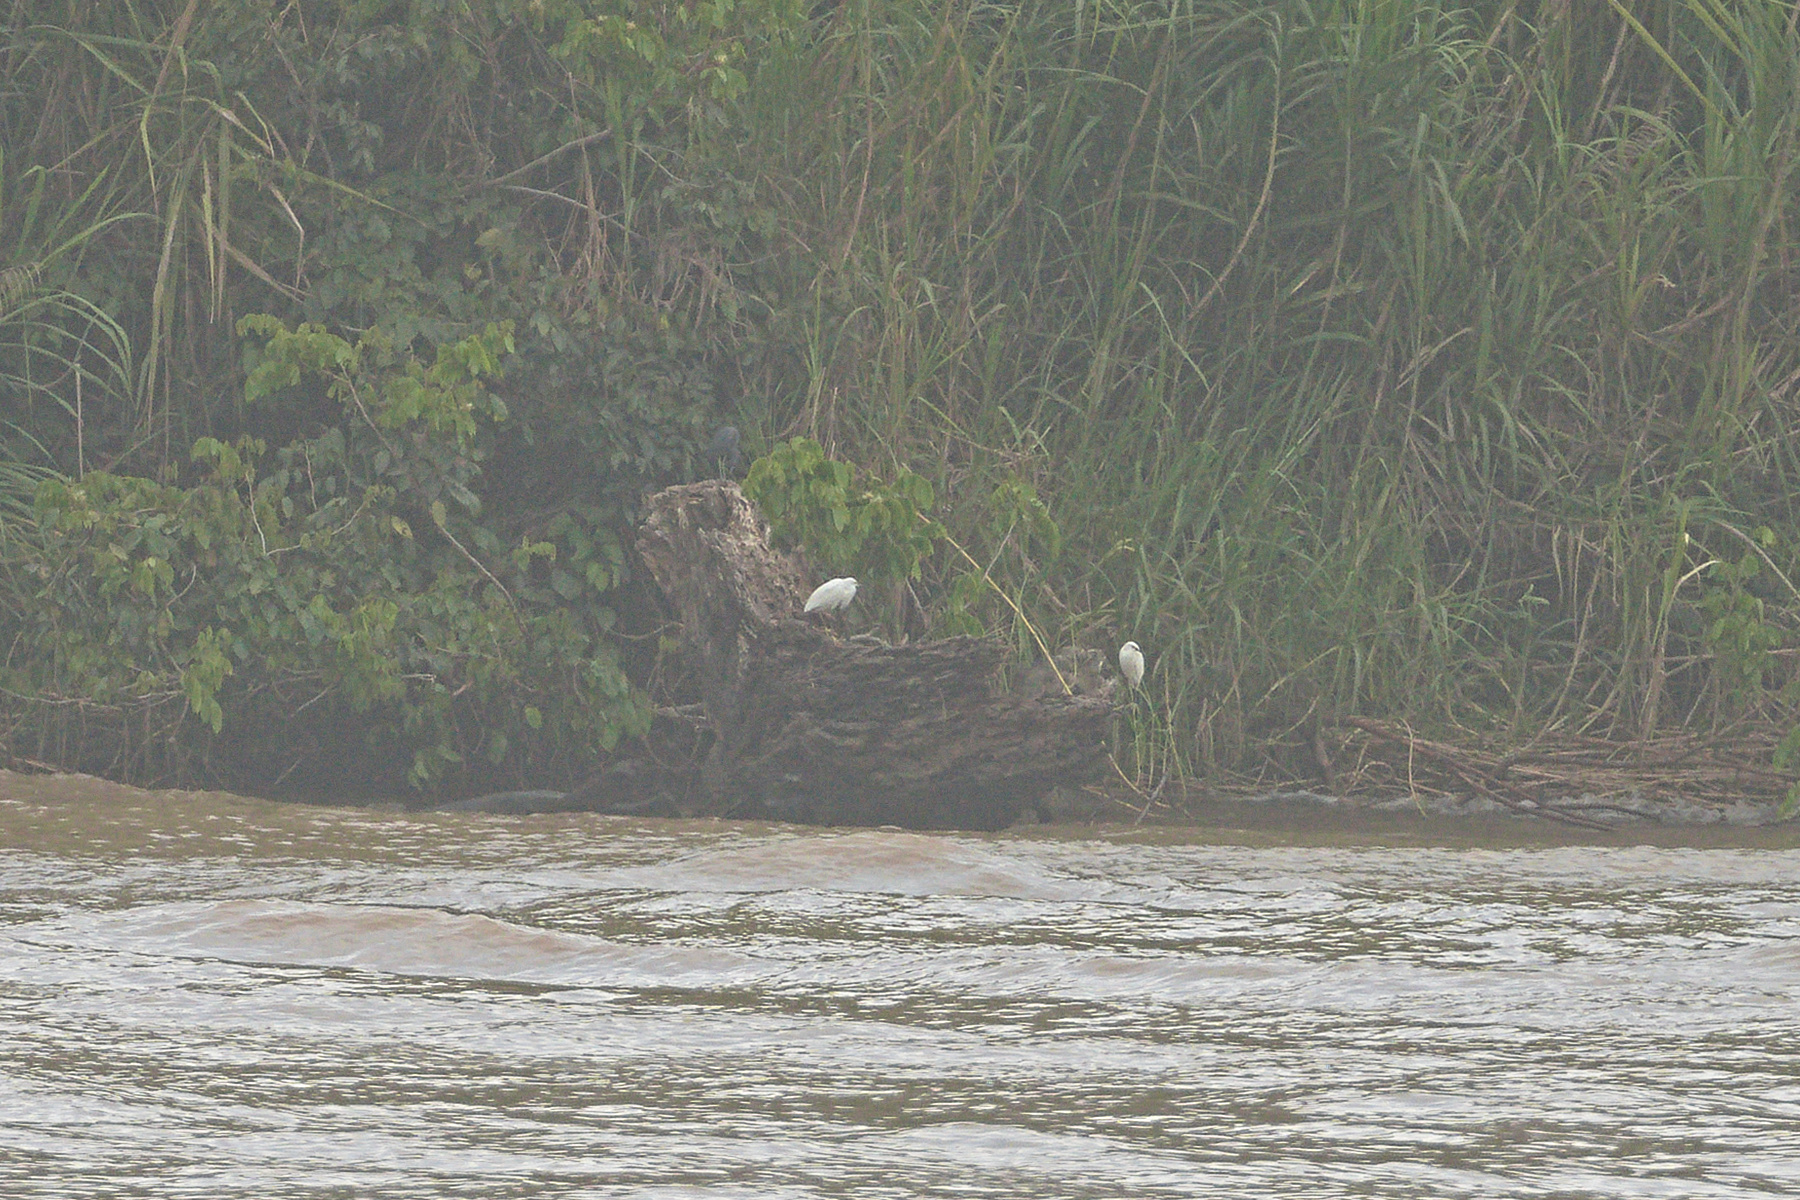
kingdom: Animalia
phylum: Chordata
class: Aves
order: Pelecaniformes
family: Ardeidae
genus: Egretta
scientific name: Egretta caerulea
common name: Little blue heron
